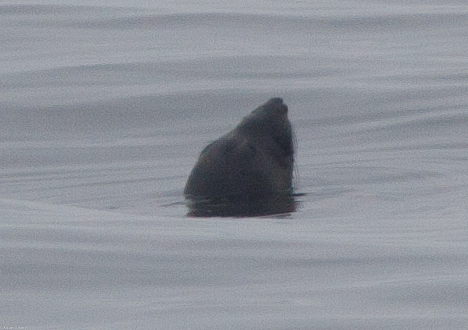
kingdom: Animalia
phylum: Chordata
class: Mammalia
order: Carnivora
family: Phocidae
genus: Mirounga
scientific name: Mirounga angustirostris
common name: Northern elephant seal
